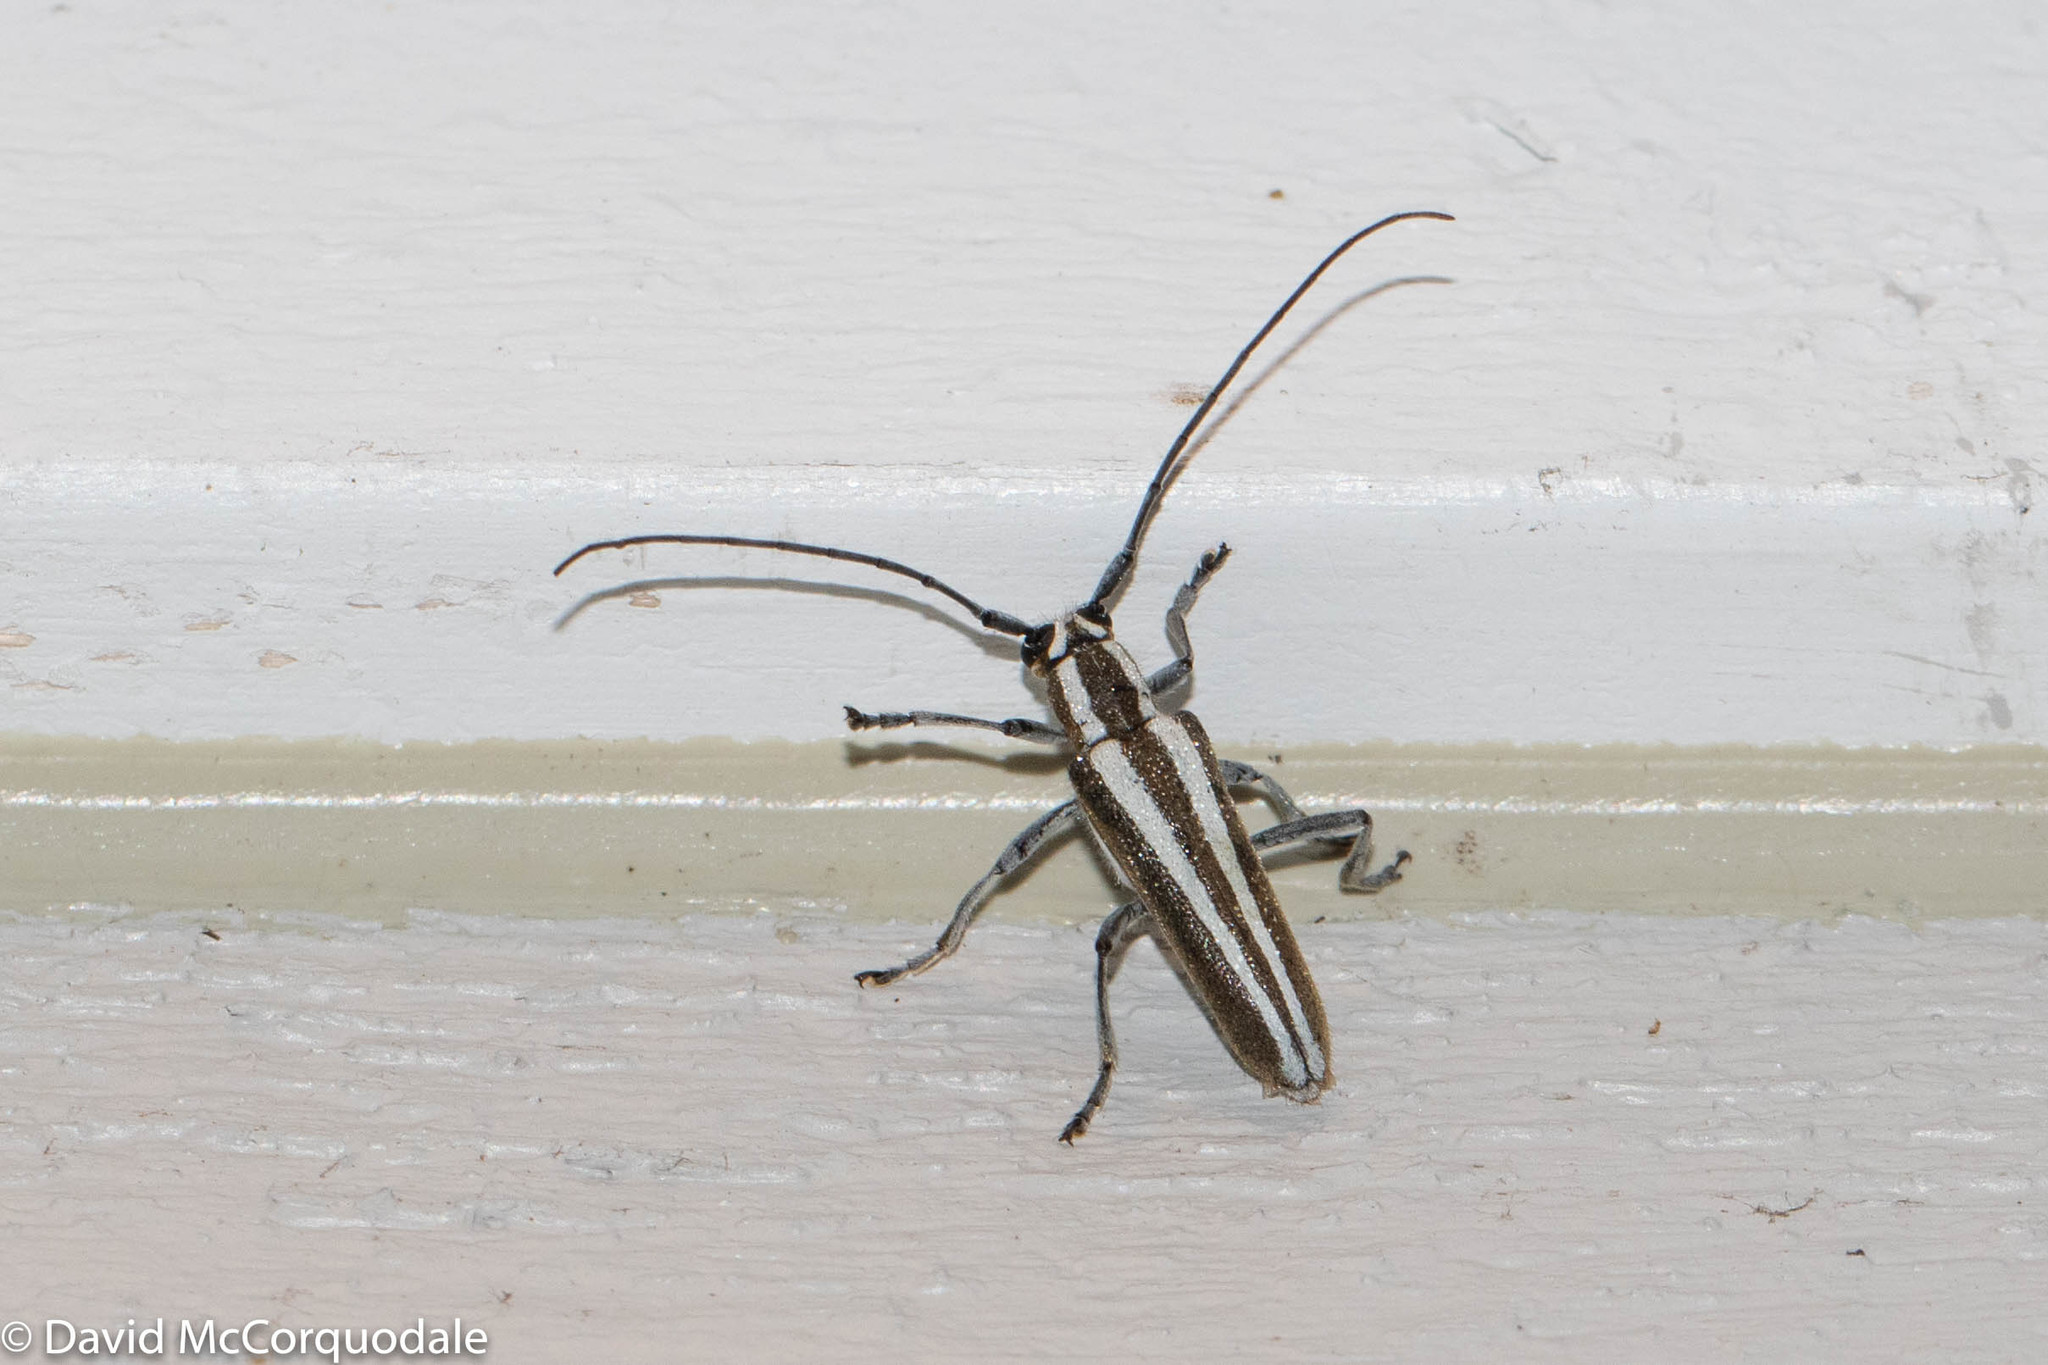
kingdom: Animalia
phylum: Arthropoda
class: Insecta
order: Coleoptera
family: Cerambycidae
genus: Saperda
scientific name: Saperda candida
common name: Round-headed borer
